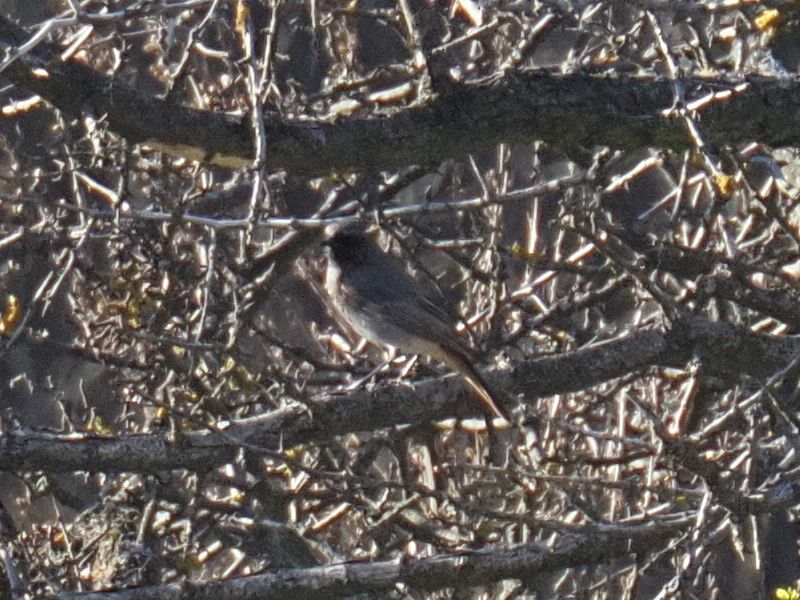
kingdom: Animalia
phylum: Chordata
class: Aves
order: Passeriformes
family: Muscicapidae
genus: Phoenicurus
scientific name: Phoenicurus ochruros
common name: Black redstart
